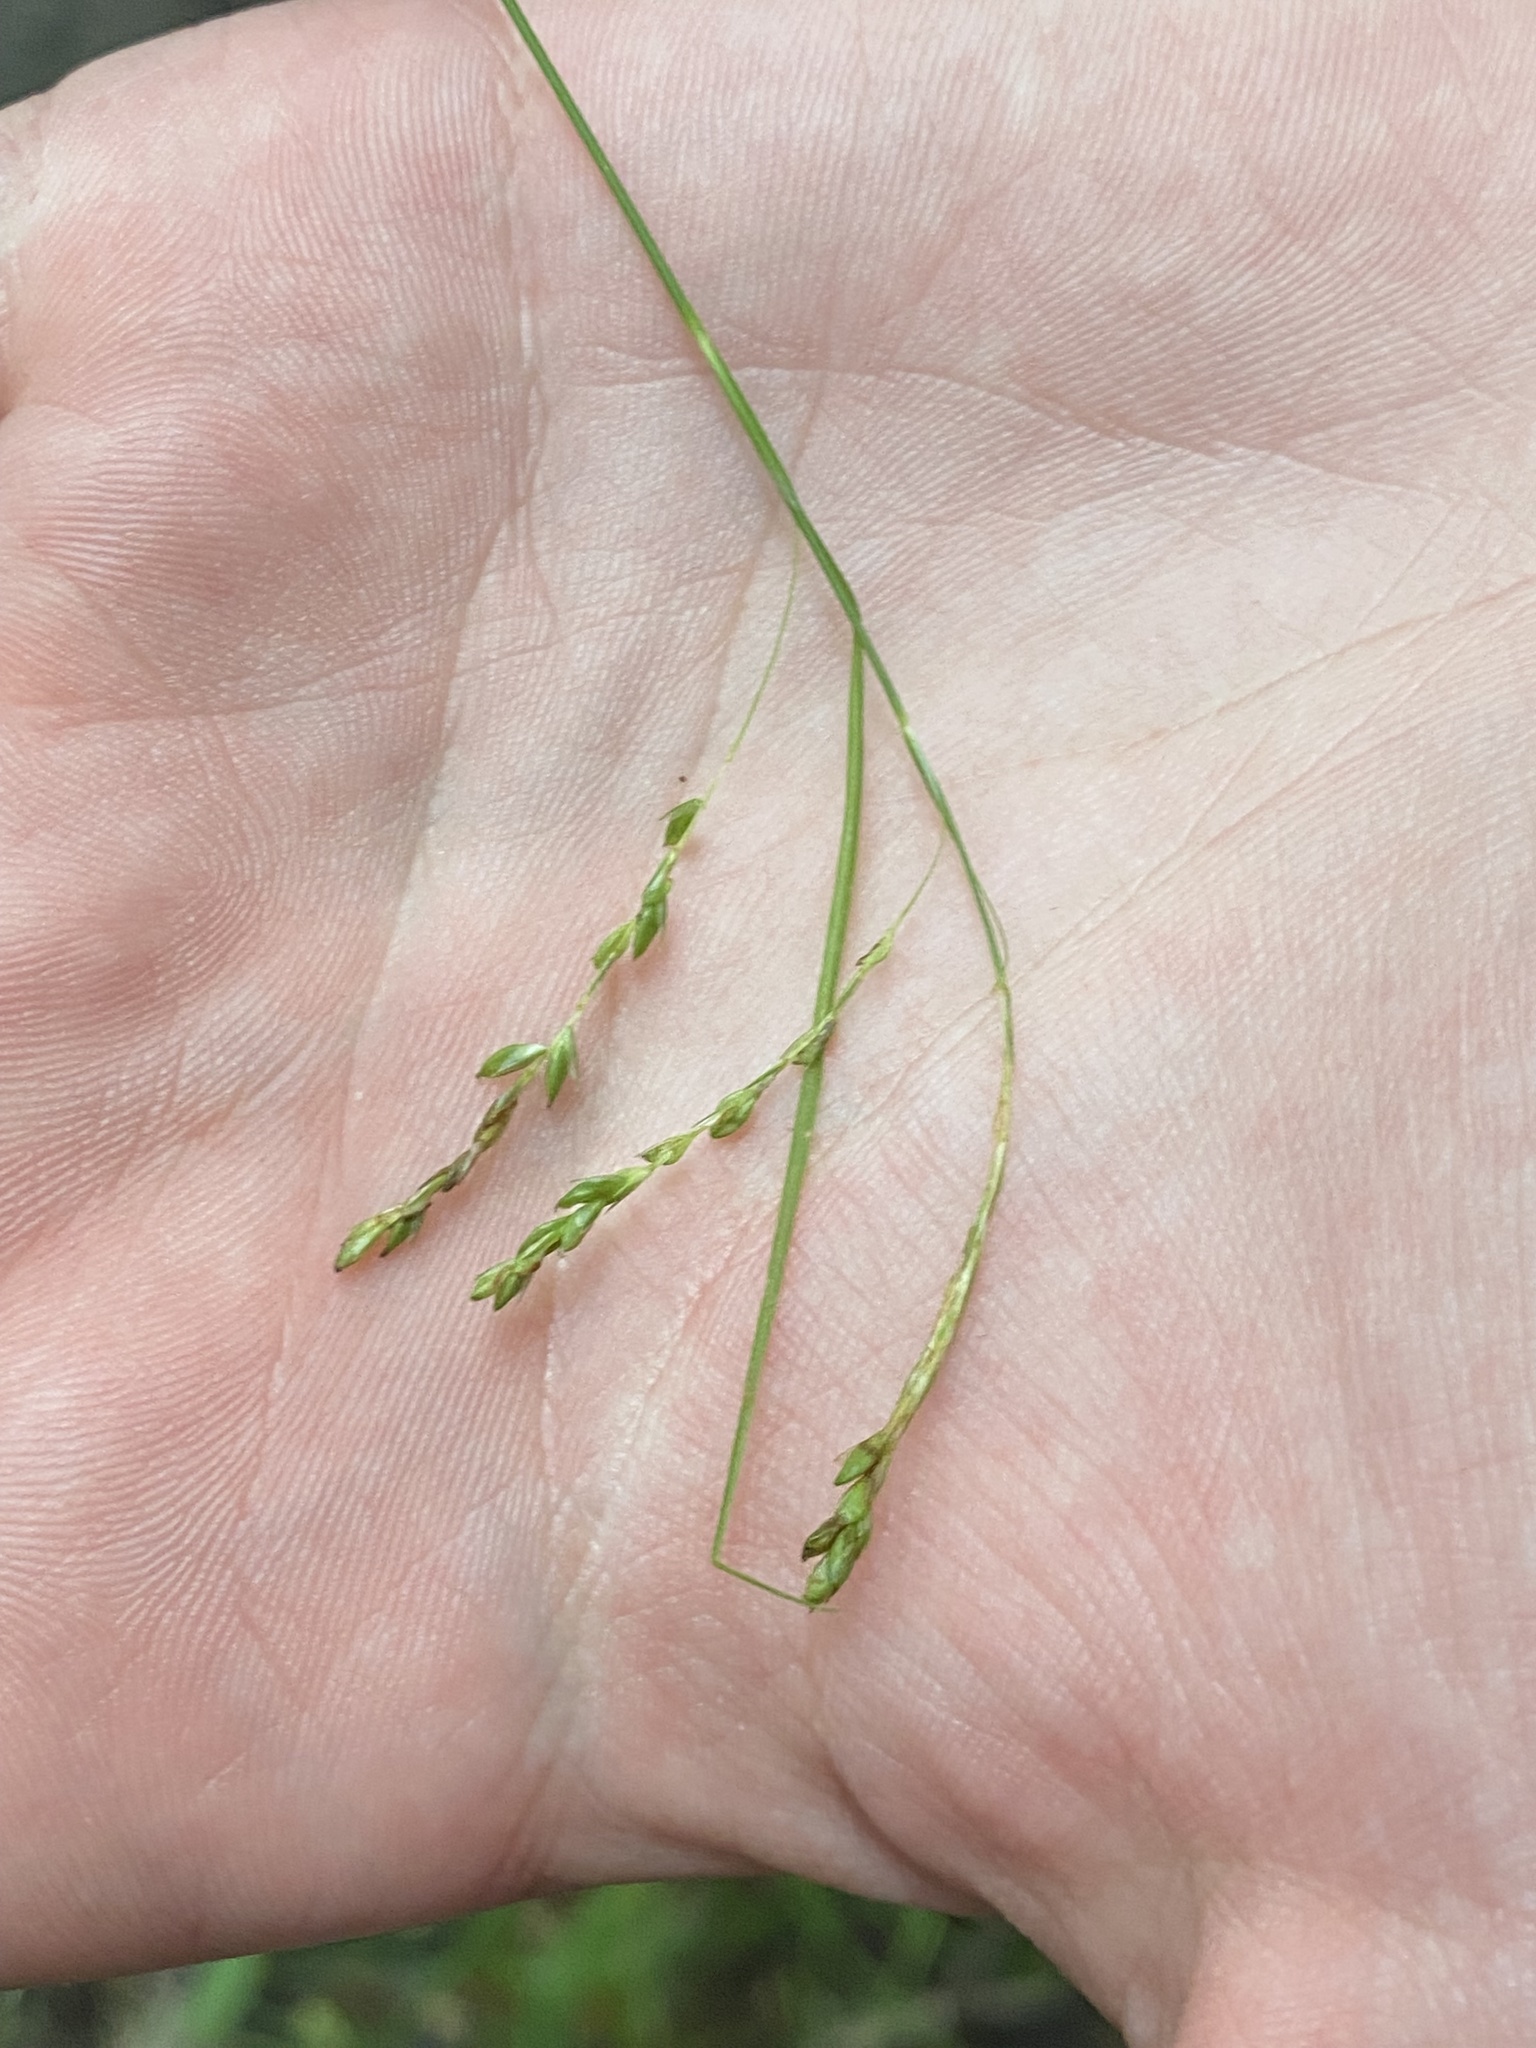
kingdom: Plantae
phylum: Tracheophyta
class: Liliopsida
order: Poales
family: Cyperaceae
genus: Carex
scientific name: Carex gracillima
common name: Graceful sedge
